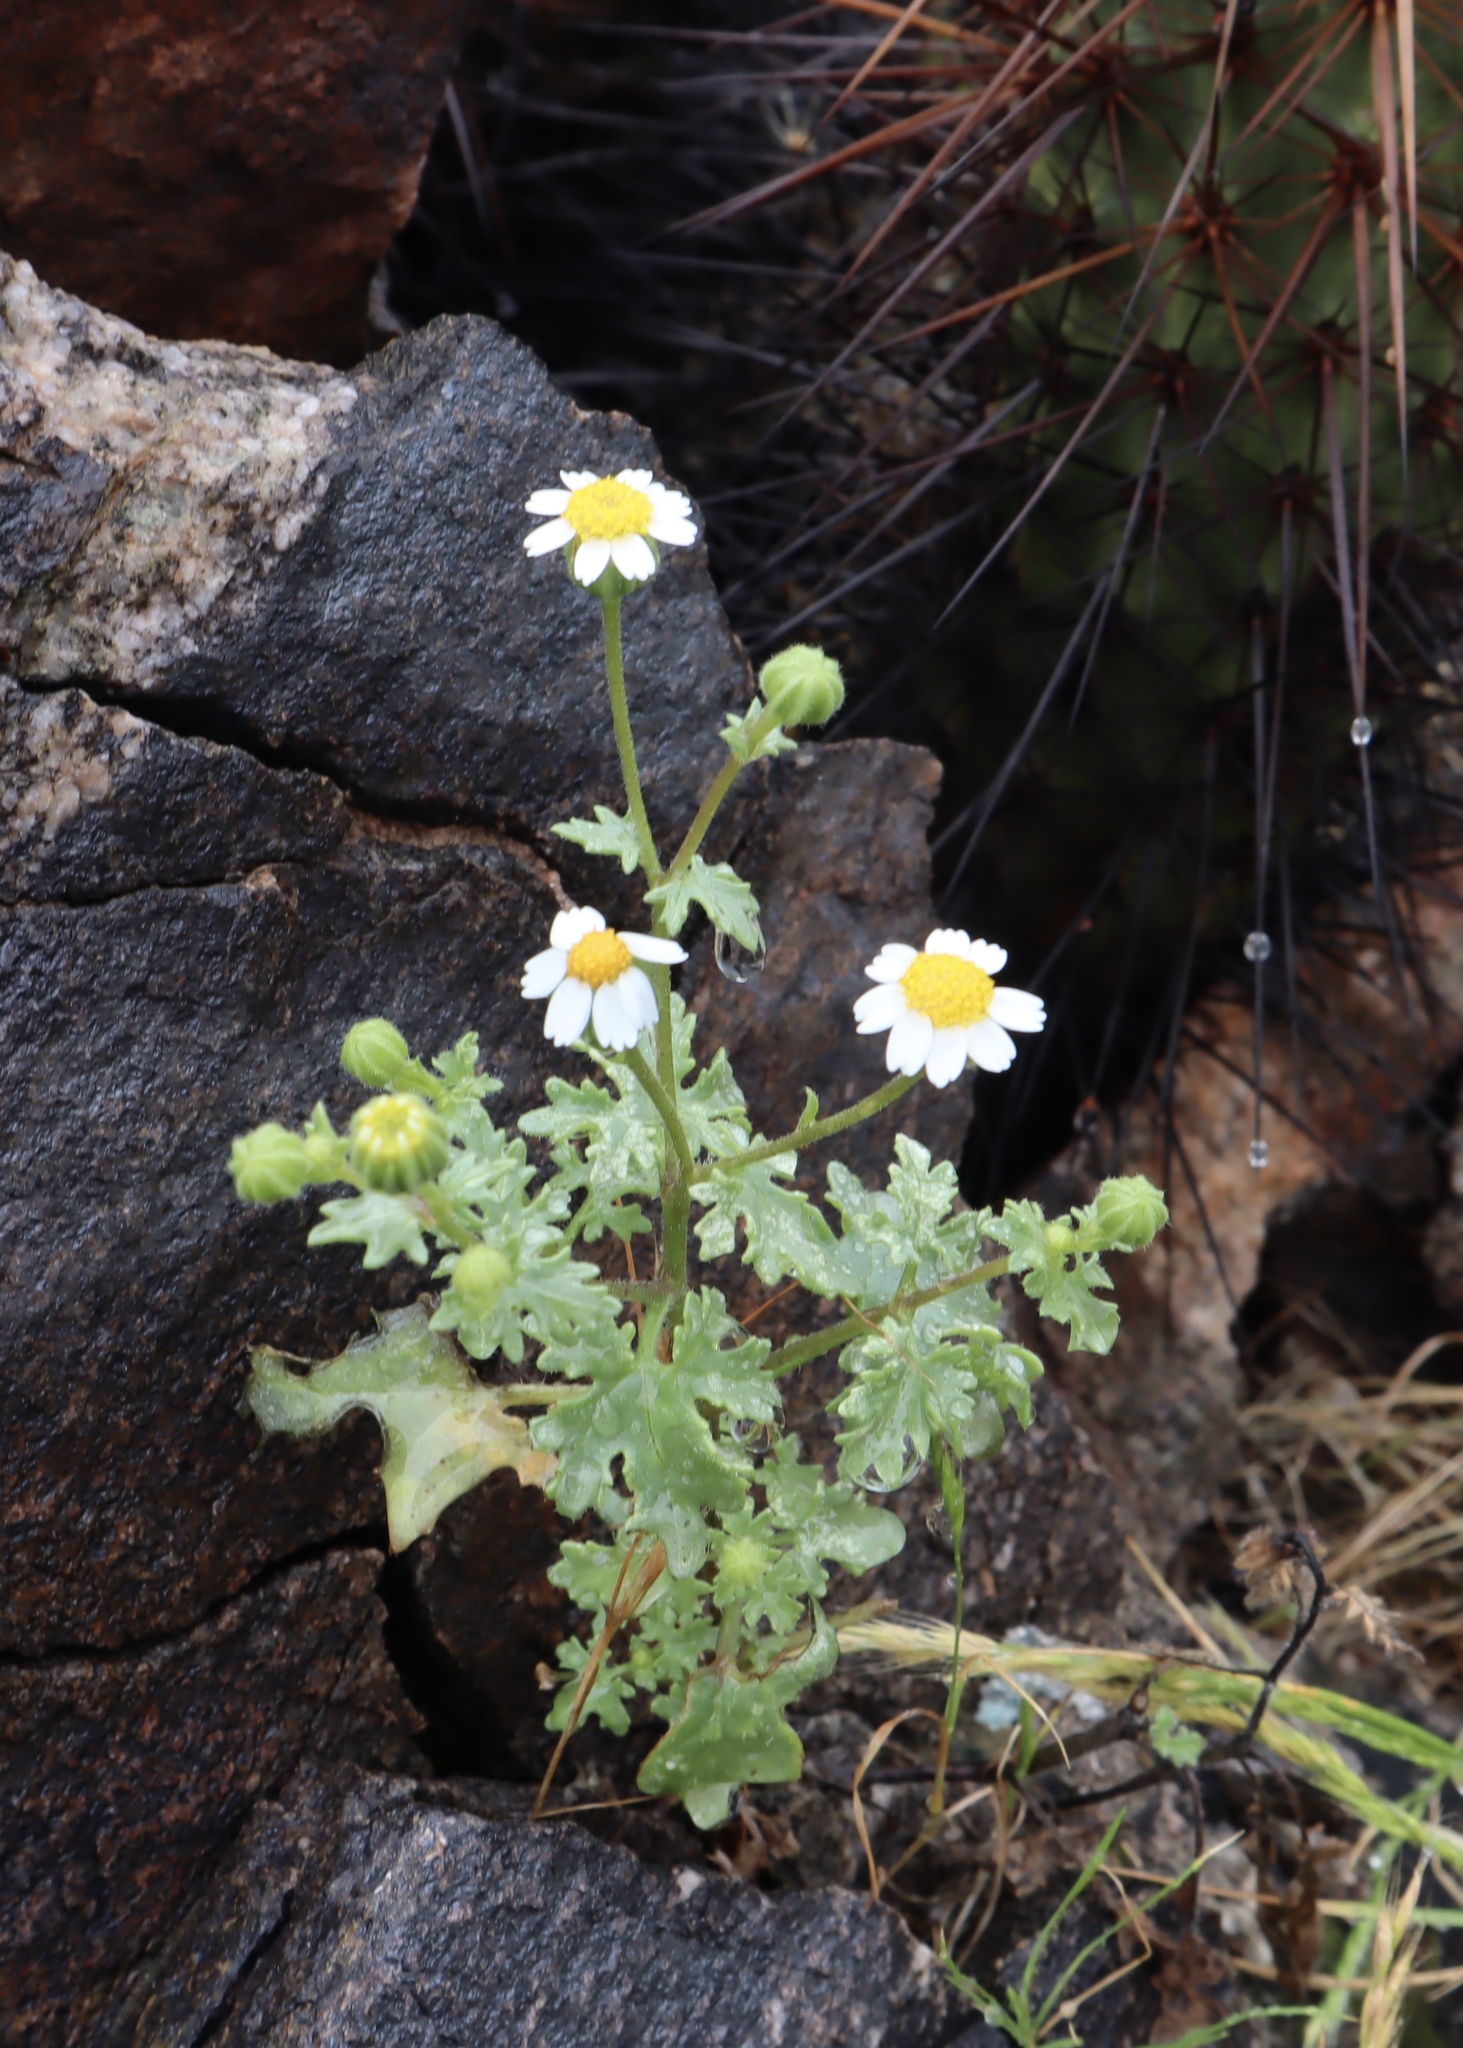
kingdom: Plantae
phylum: Tracheophyta
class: Magnoliopsida
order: Asterales
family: Asteraceae
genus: Laphamia
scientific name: Laphamia emoryi
